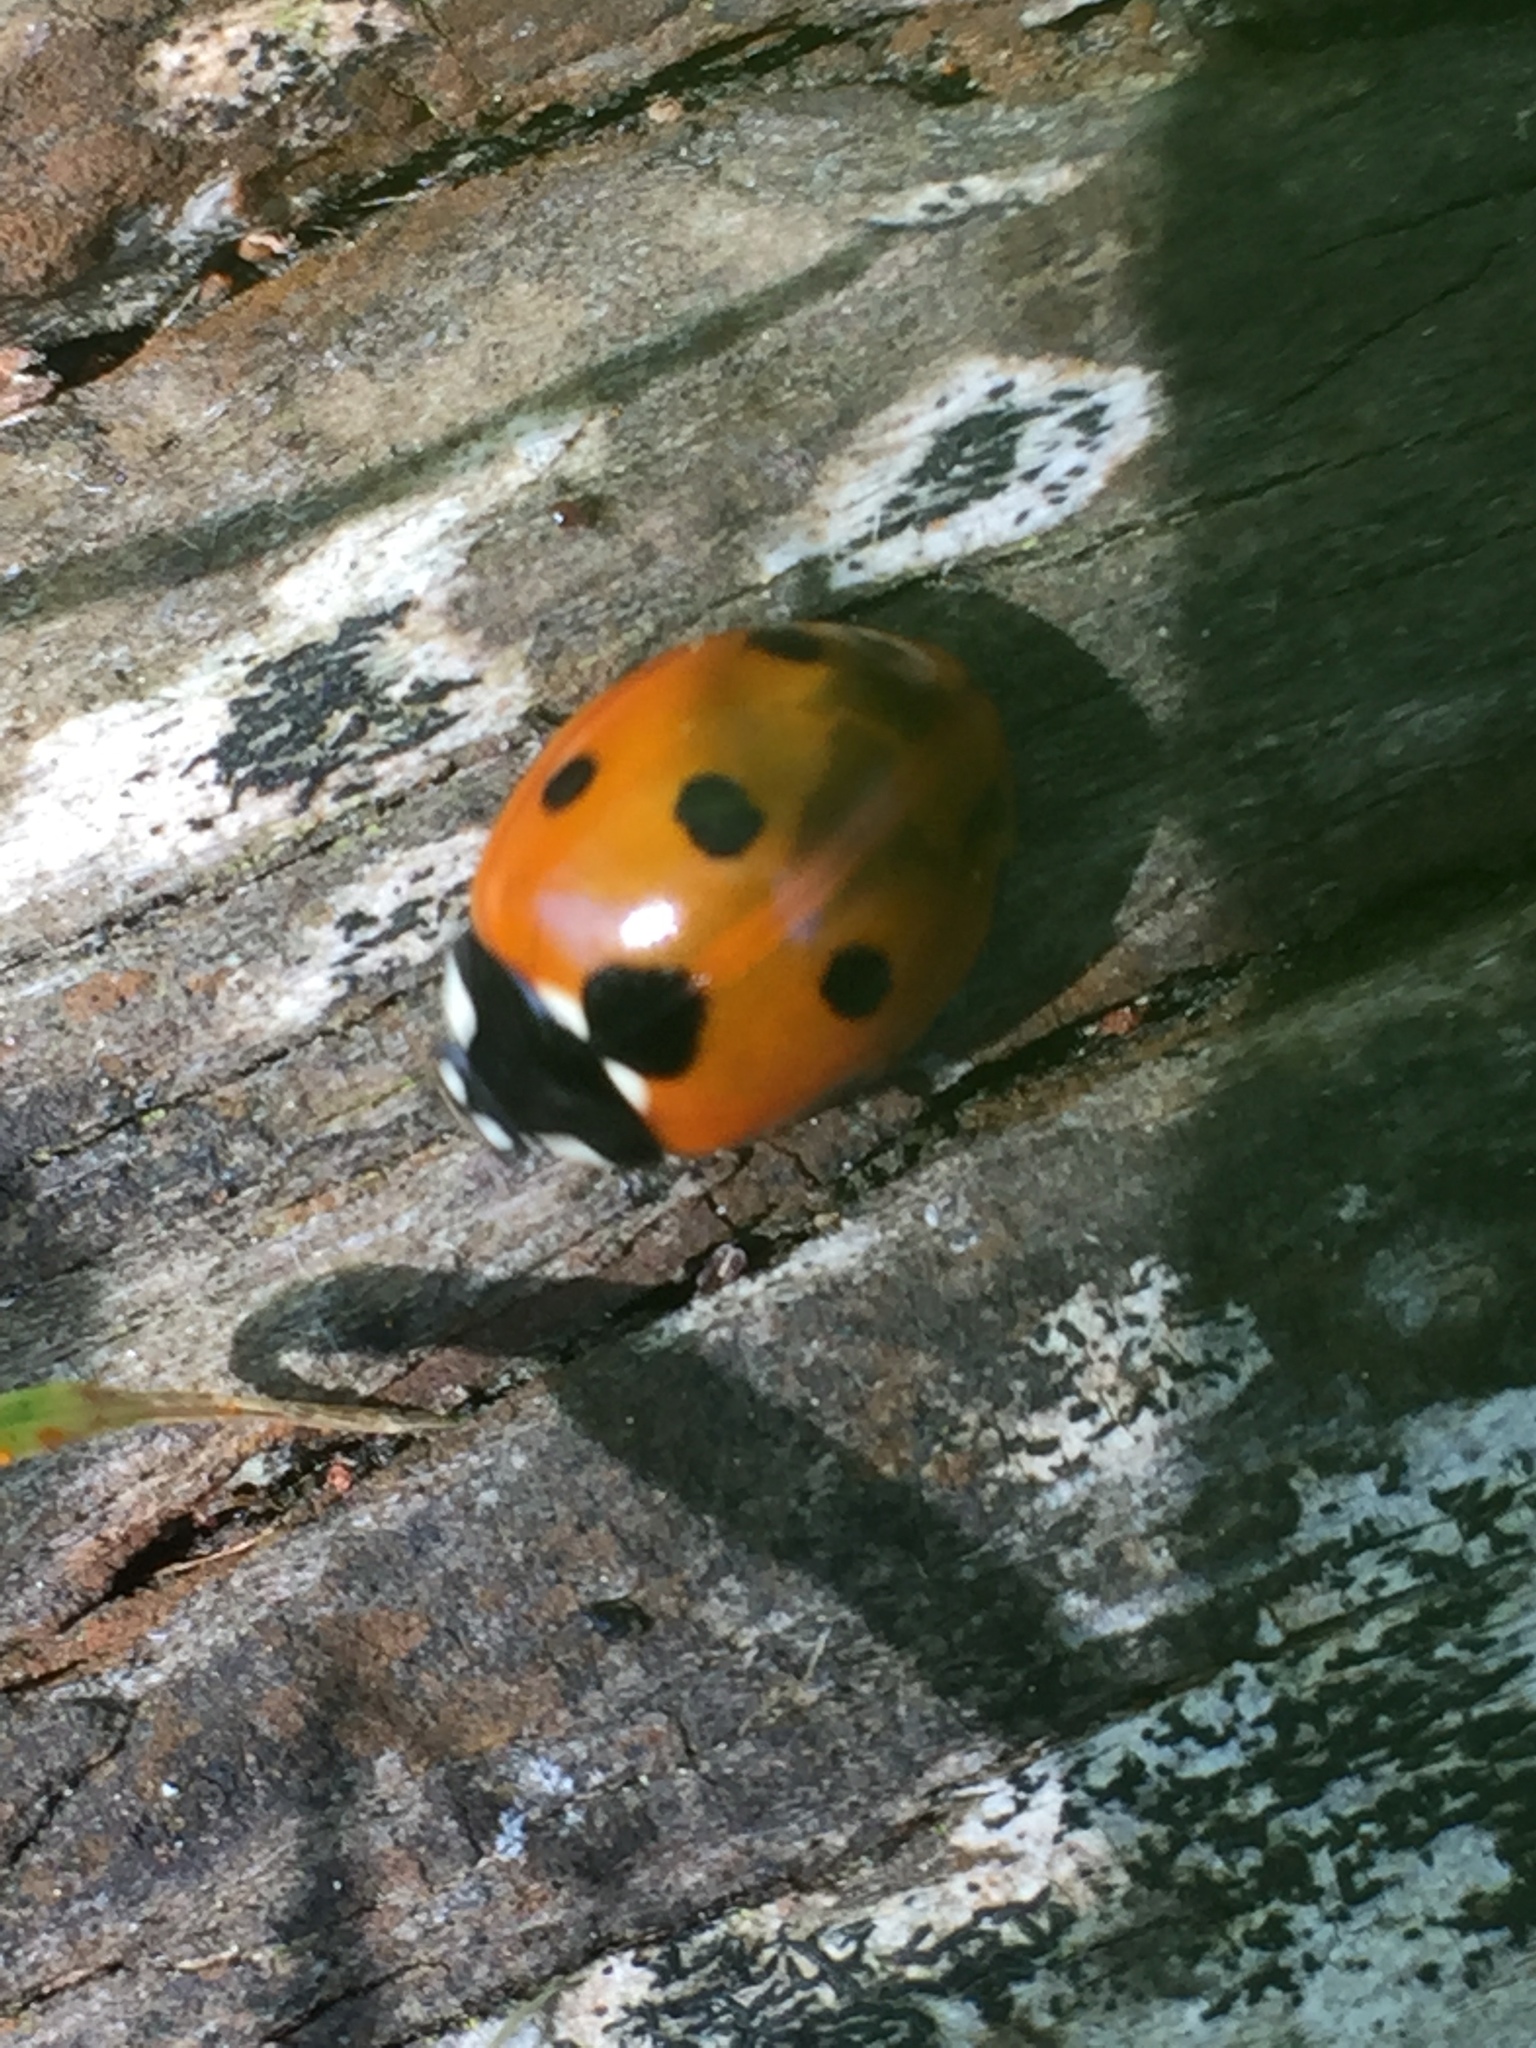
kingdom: Animalia
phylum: Arthropoda
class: Insecta
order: Coleoptera
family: Coccinellidae
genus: Coccinella
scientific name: Coccinella septempunctata
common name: Sevenspotted lady beetle
